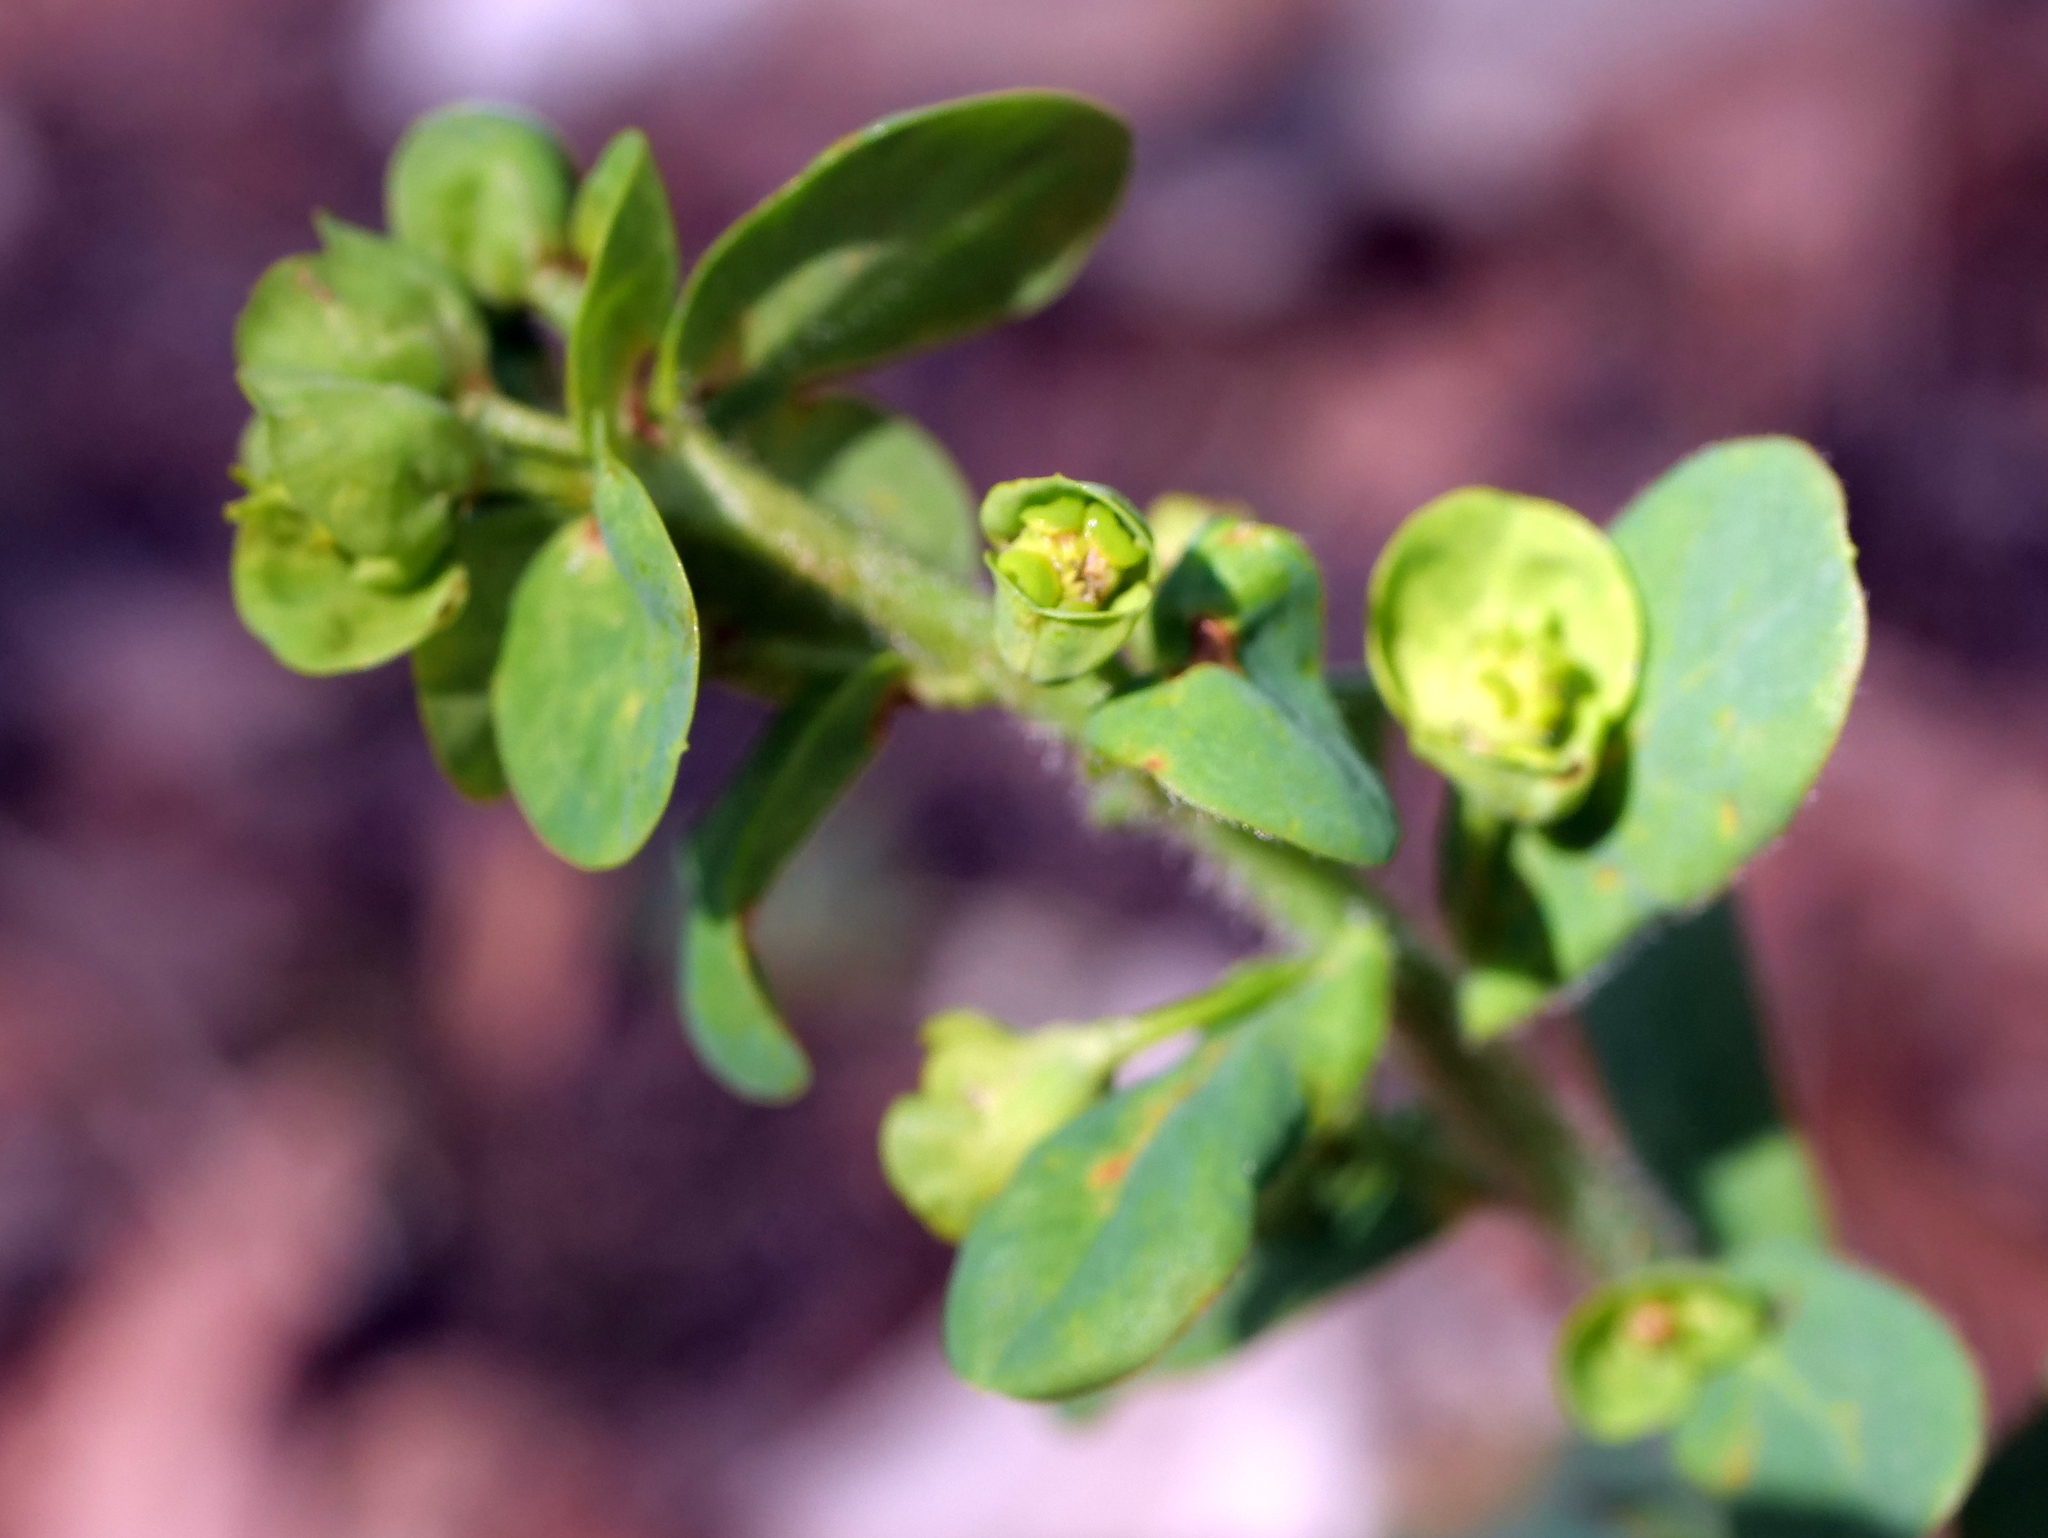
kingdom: Plantae
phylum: Tracheophyta
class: Magnoliopsida
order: Malpighiales
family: Euphorbiaceae
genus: Euphorbia
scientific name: Euphorbia amygdaloides
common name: Wood spurge
